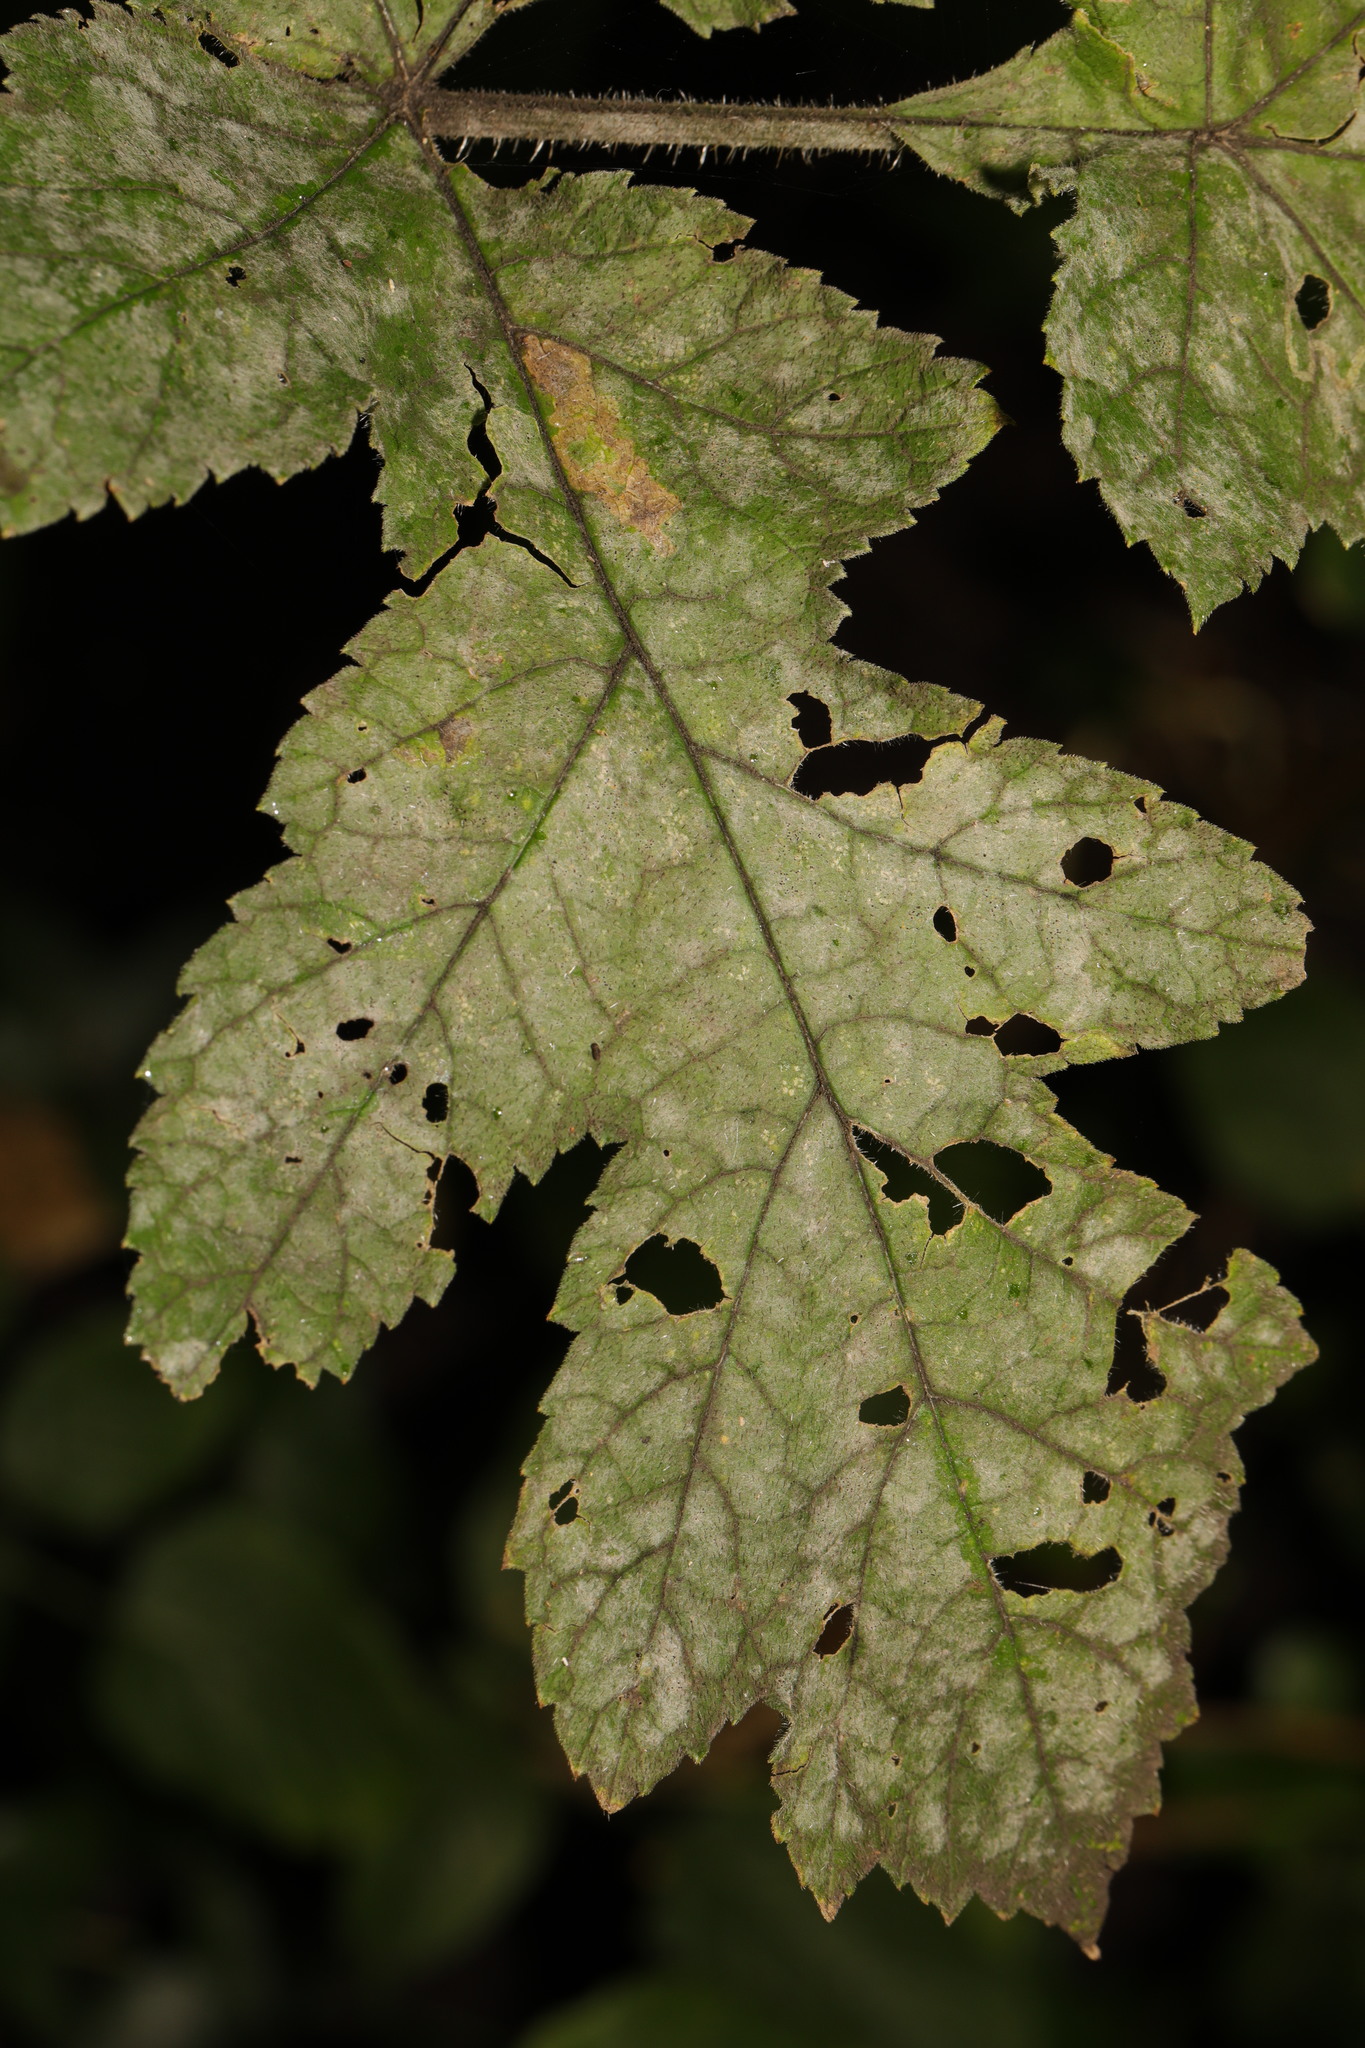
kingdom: Fungi
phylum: Ascomycota
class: Leotiomycetes
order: Helotiales
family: Erysiphaceae
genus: Erysiphe
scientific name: Erysiphe heraclei
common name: Umbellifer mildew
